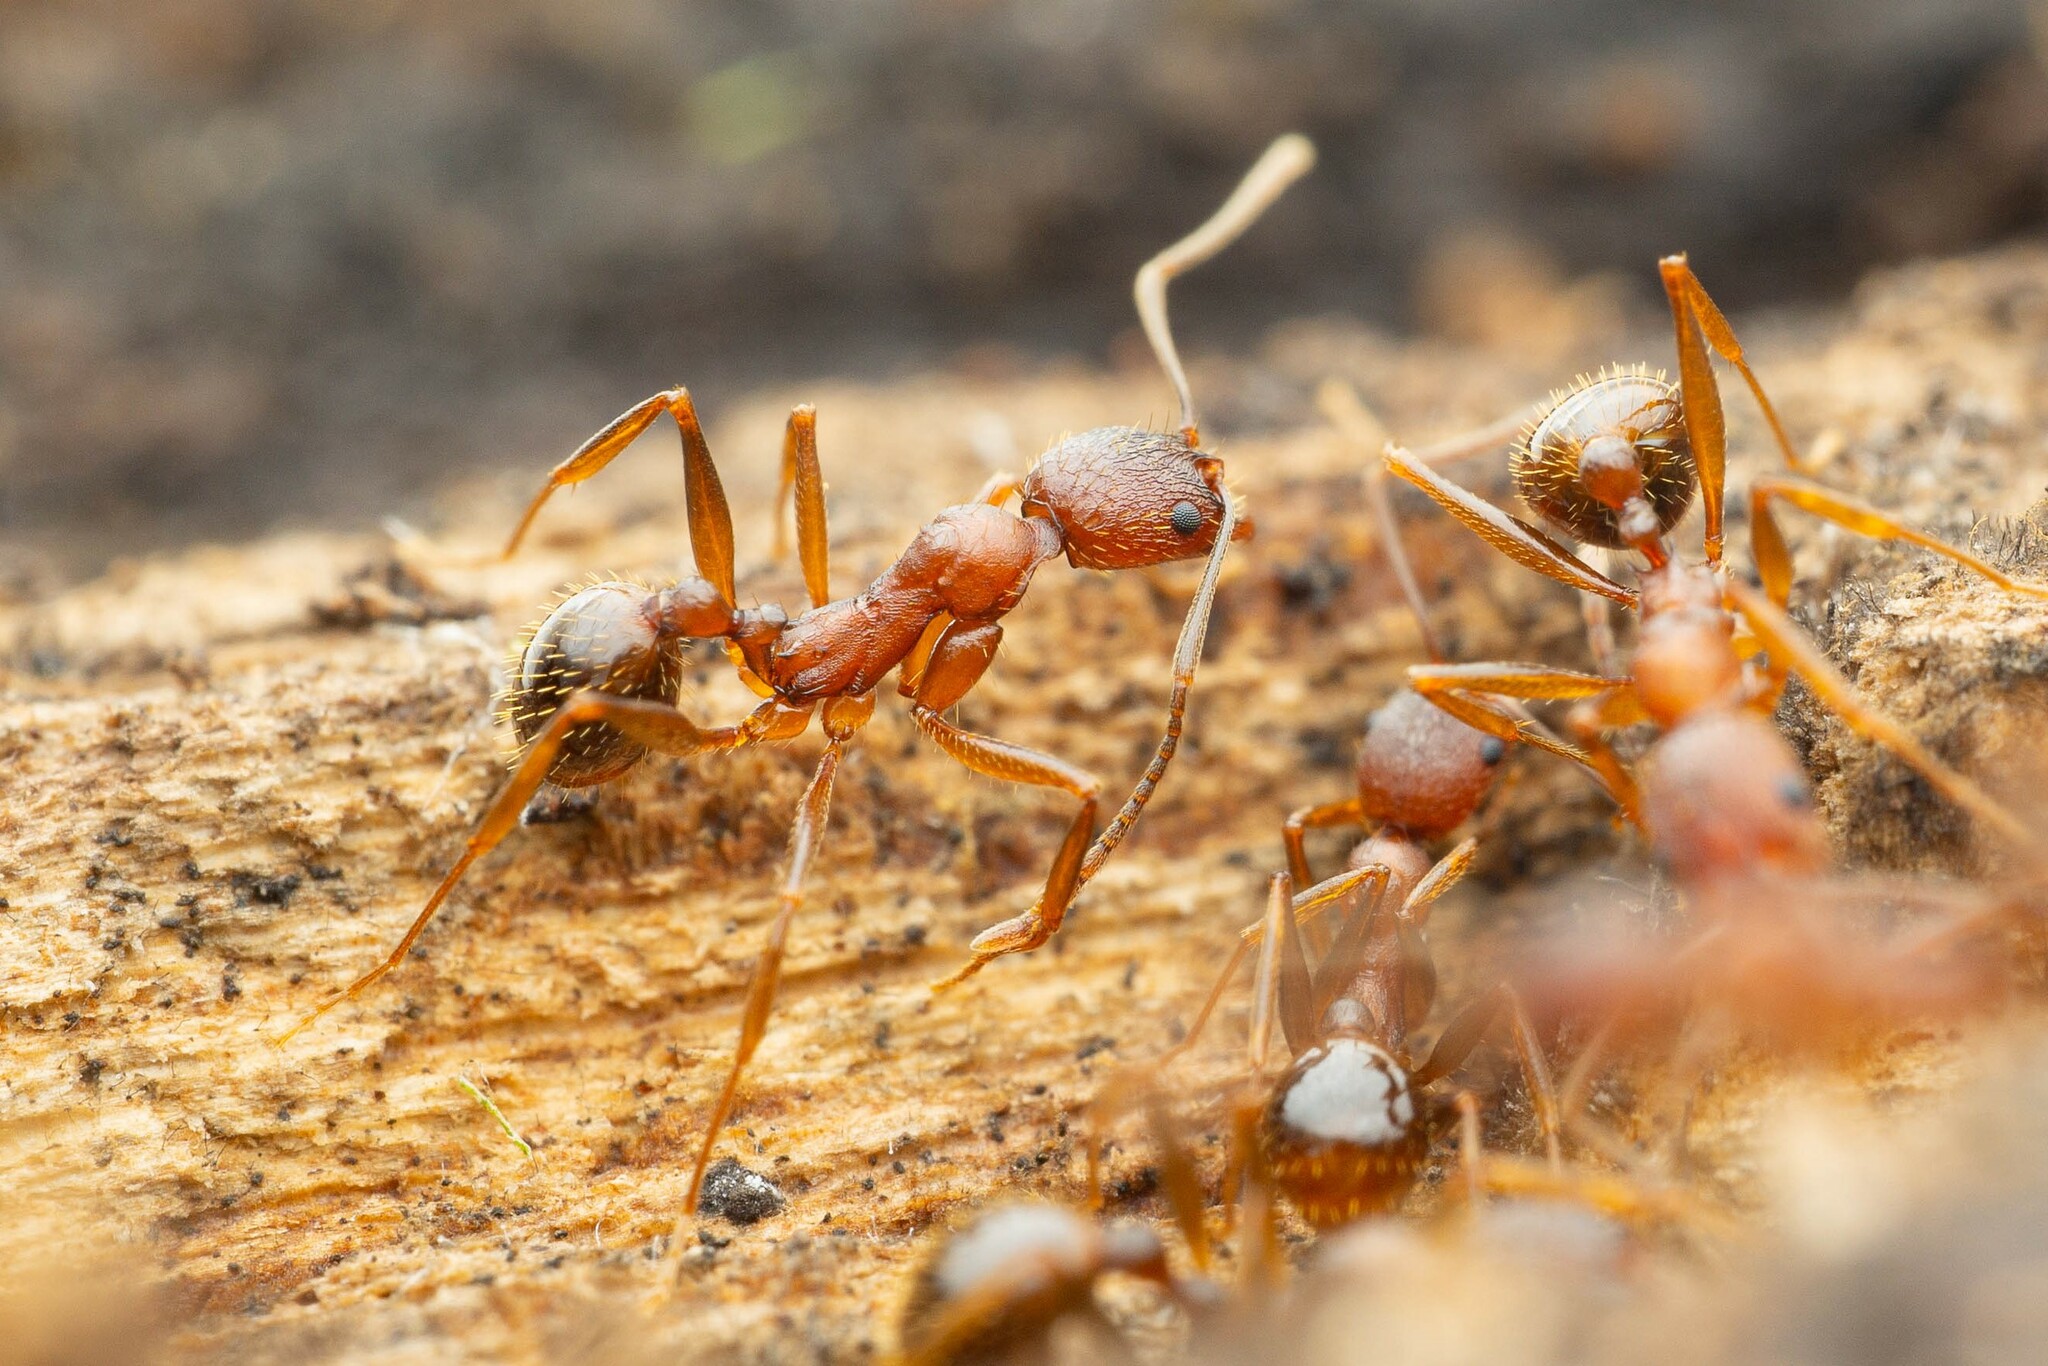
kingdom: Animalia
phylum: Arthropoda
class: Insecta
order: Hymenoptera
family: Formicidae
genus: Aphaenogaster
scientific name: Aphaenogaster texana
